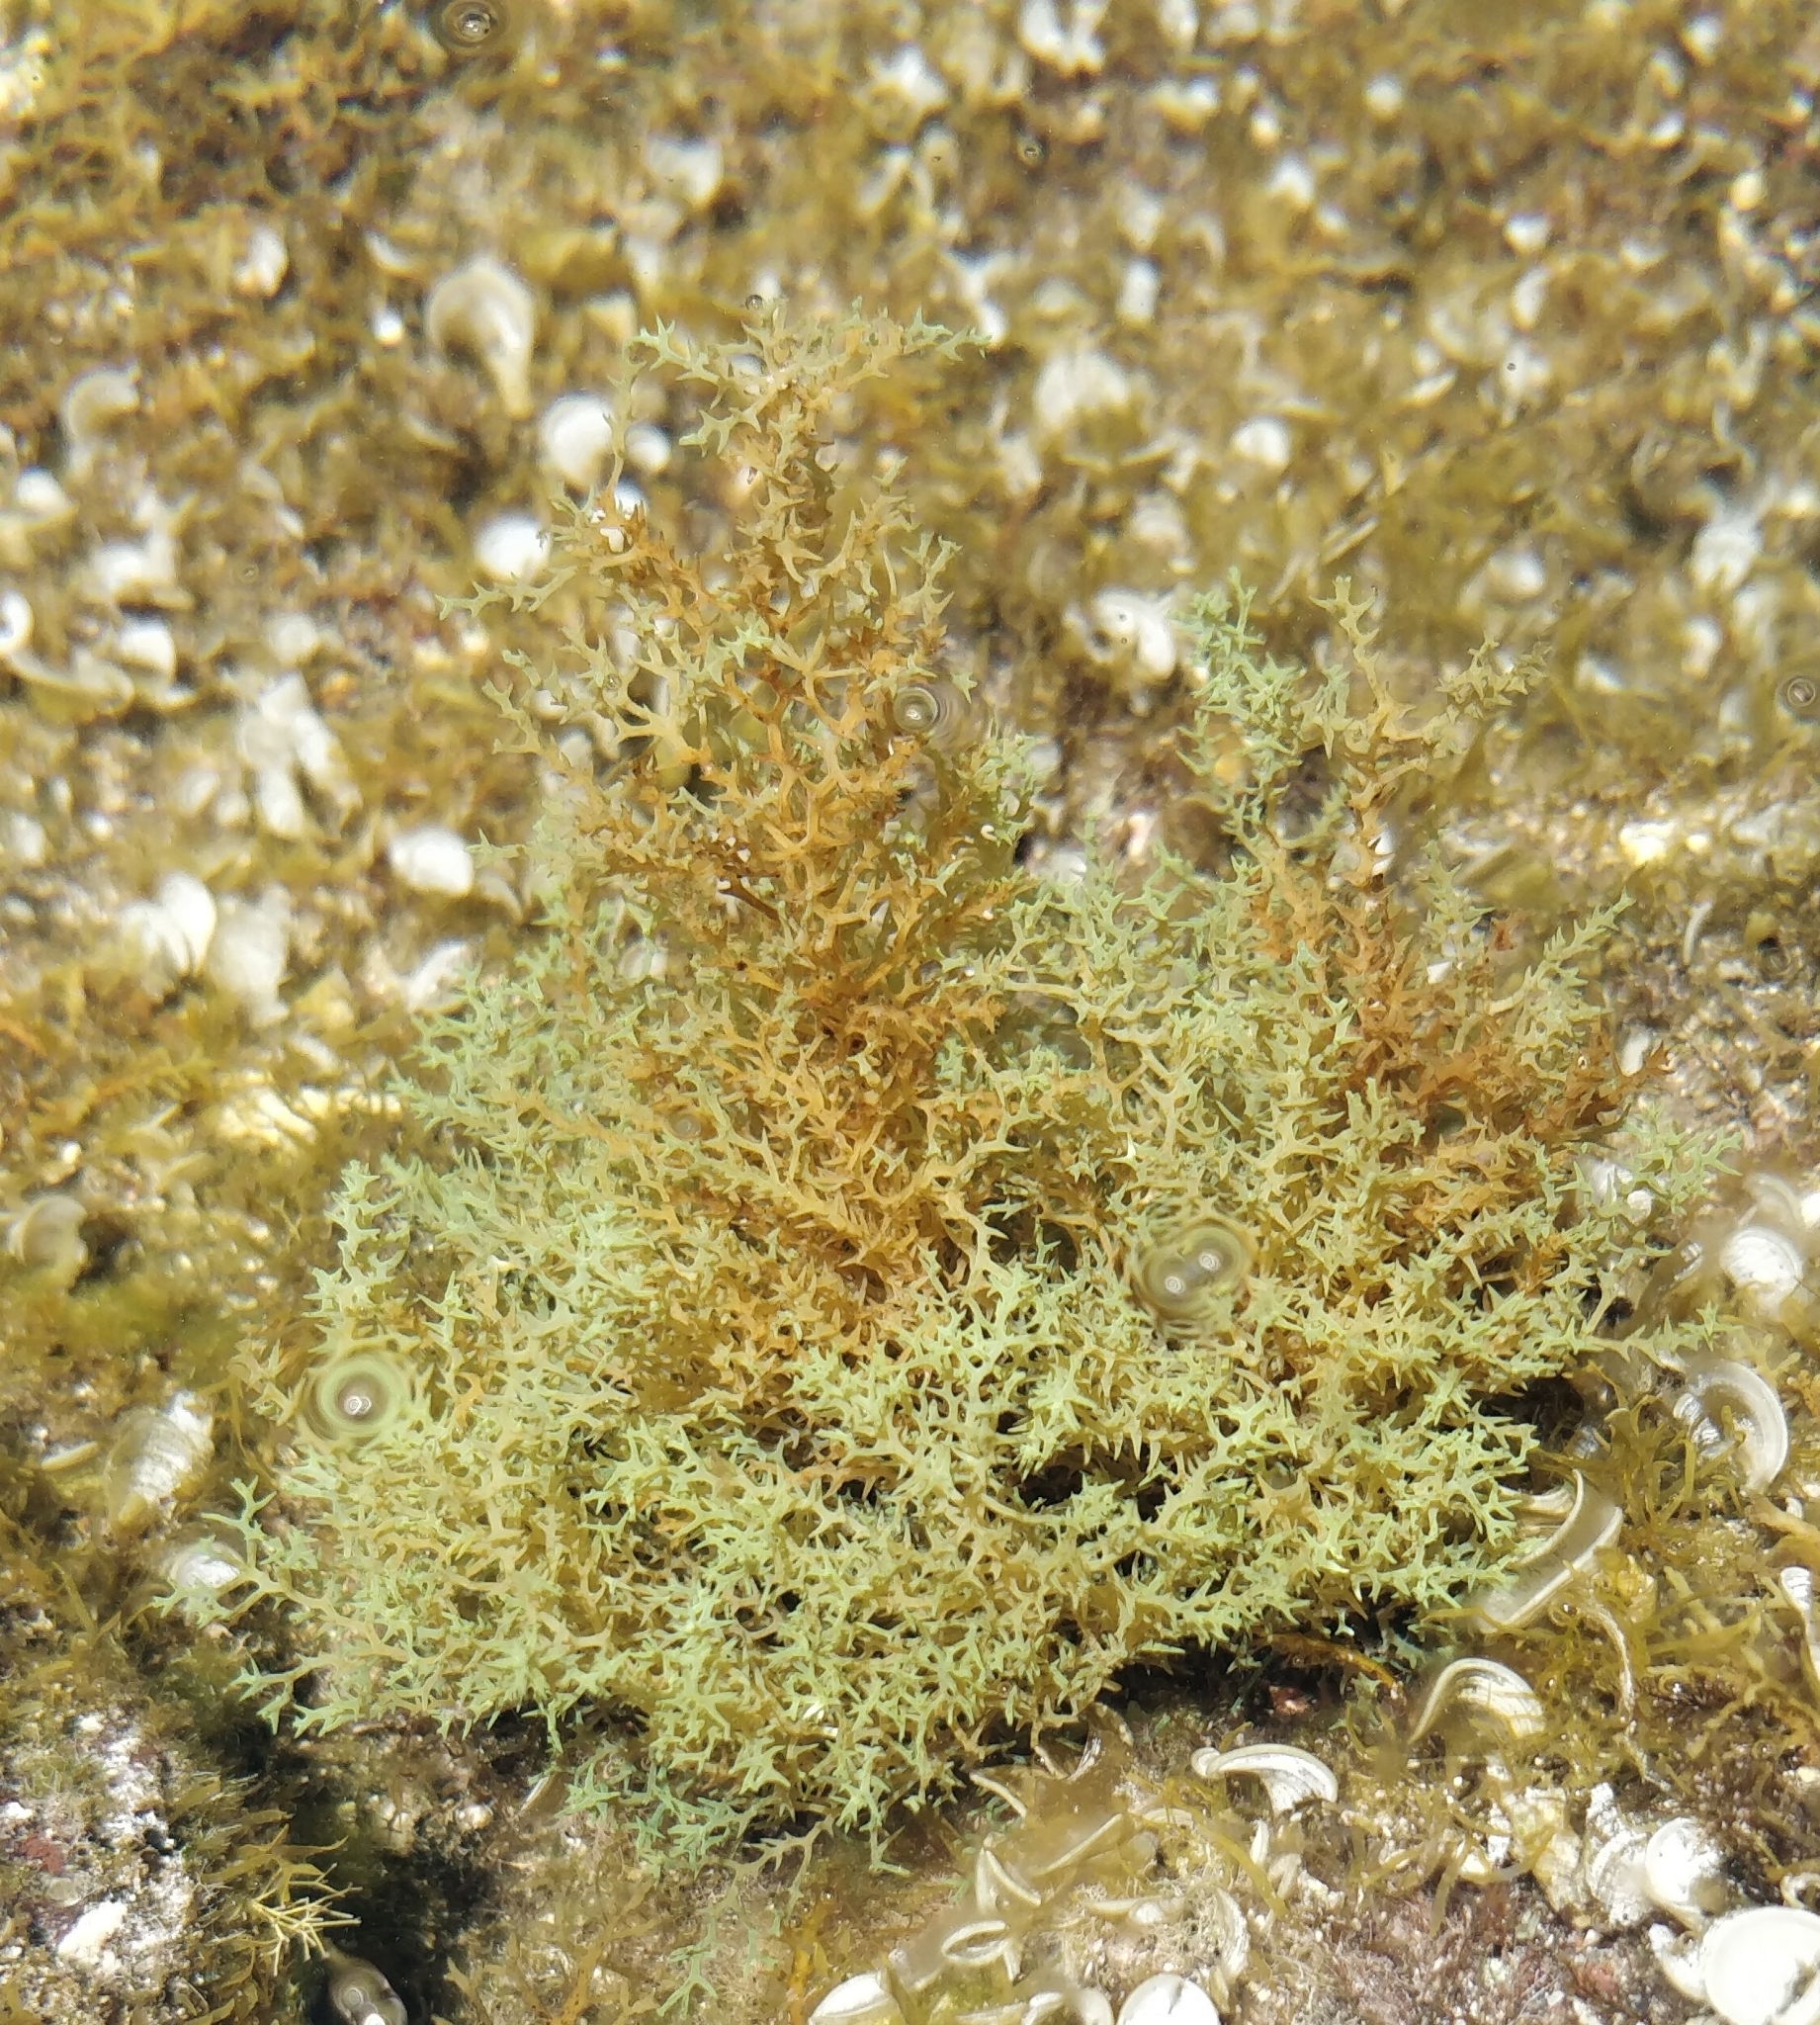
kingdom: Chromista
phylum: Ochrophyta
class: Phaeophyceae
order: Fucales
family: Sargassaceae
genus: Cystoseira
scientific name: Cystoseira Gongolaria abies-marina
